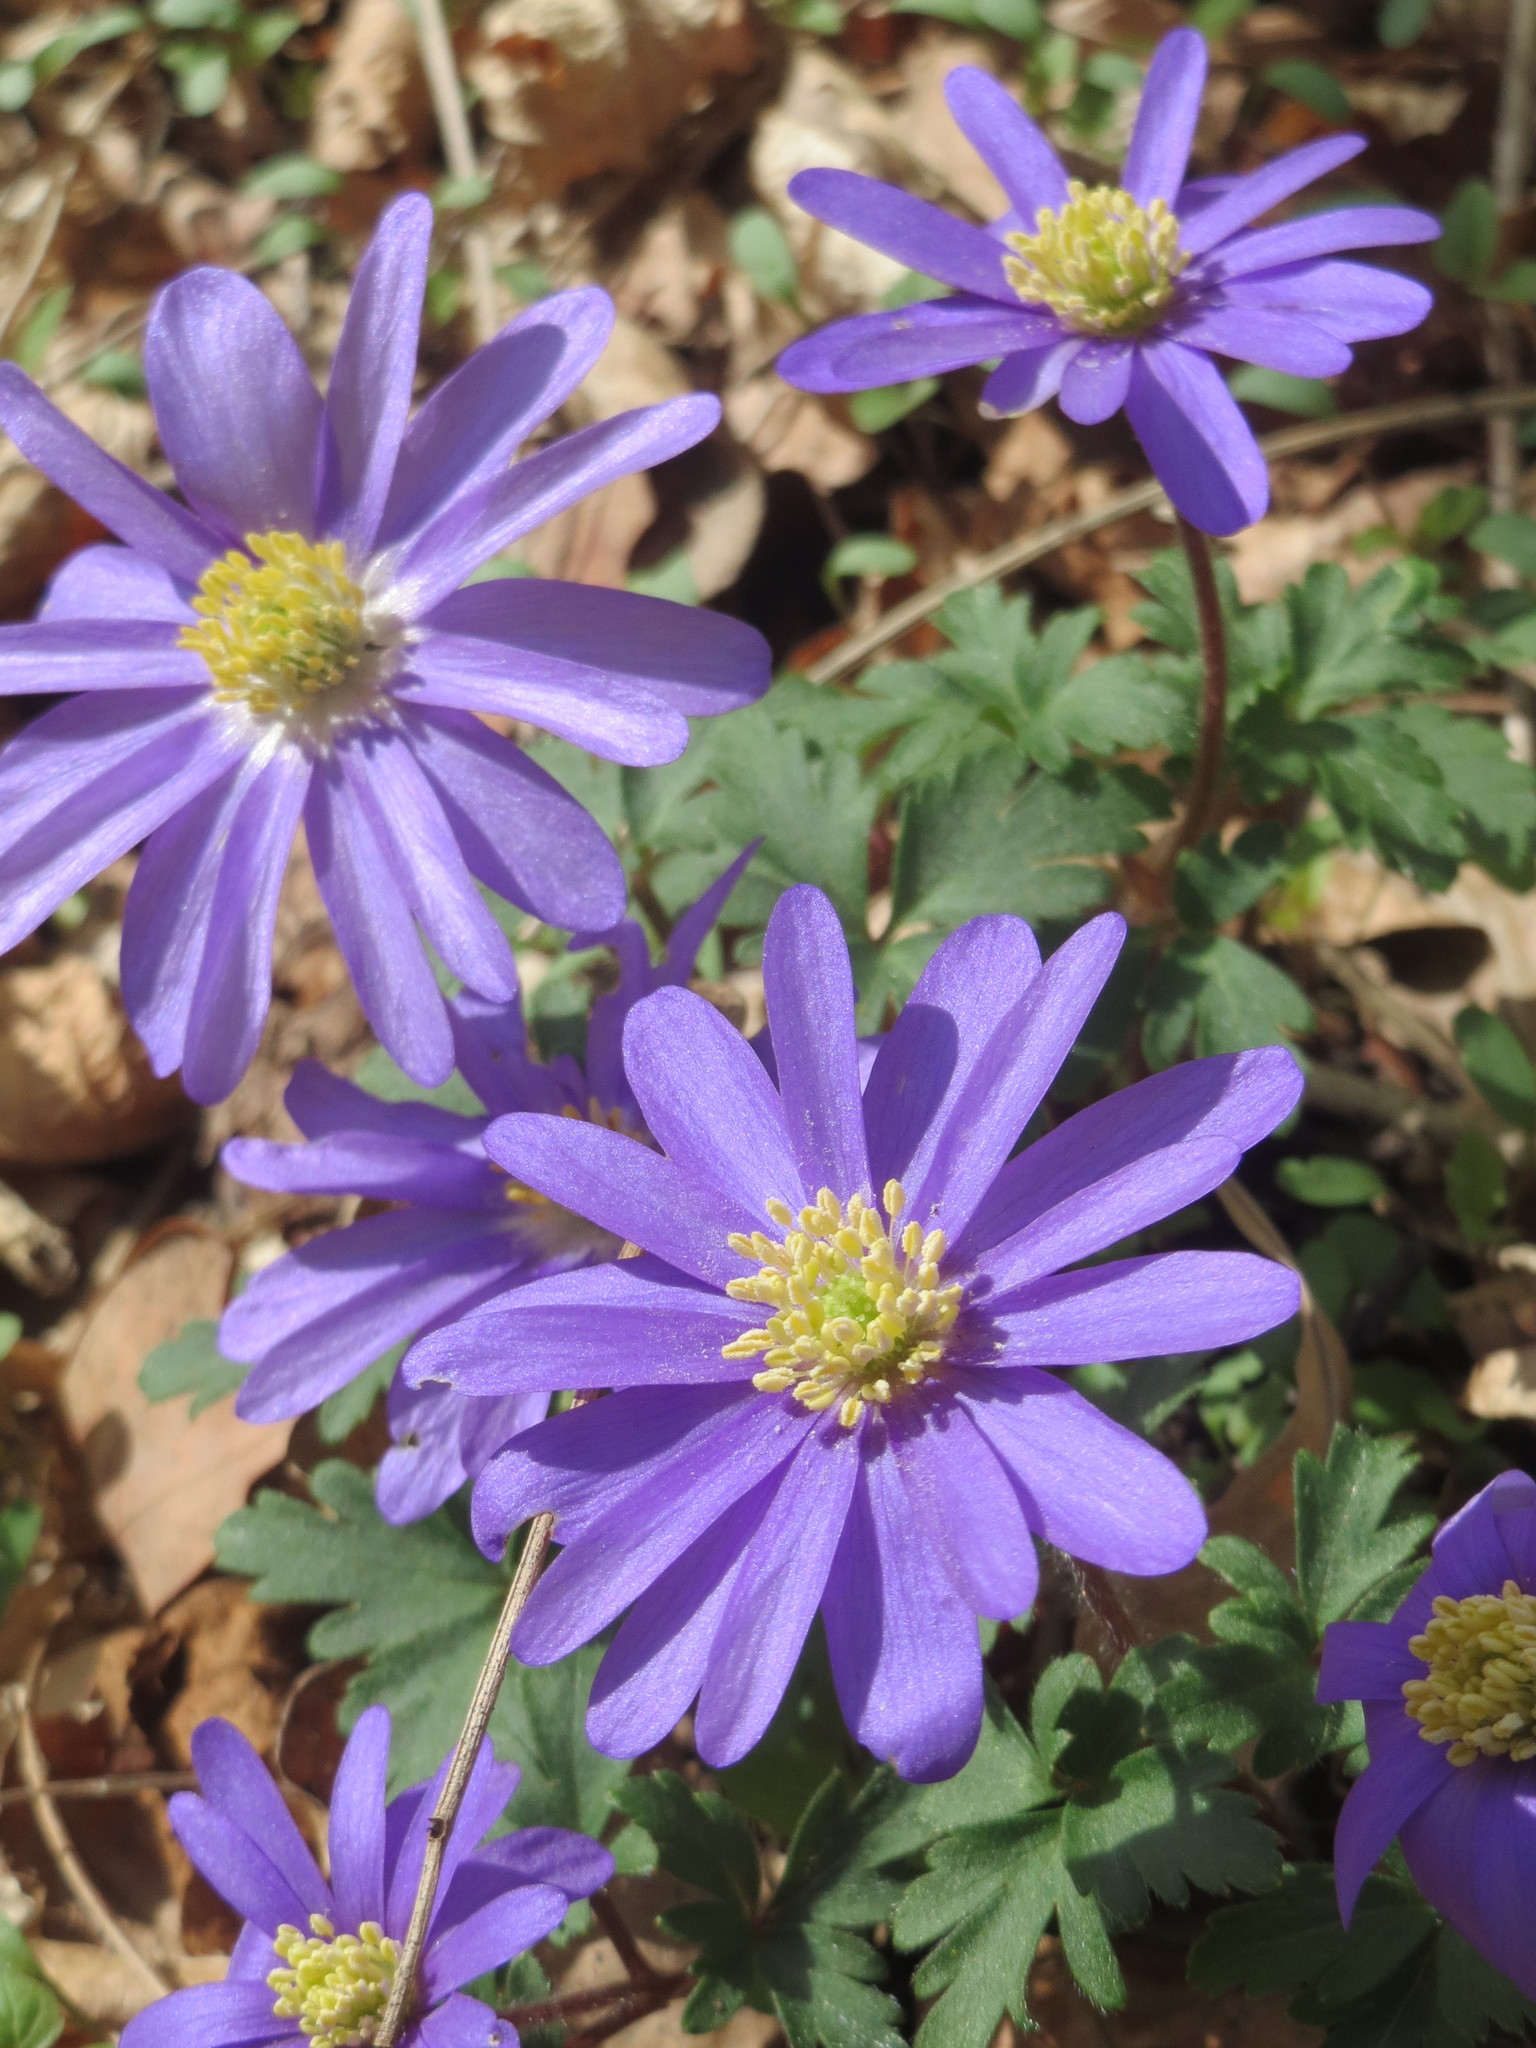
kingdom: Plantae
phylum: Tracheophyta
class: Magnoliopsida
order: Ranunculales
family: Ranunculaceae
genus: Anemone
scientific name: Anemone blanda
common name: Balkan anemone
